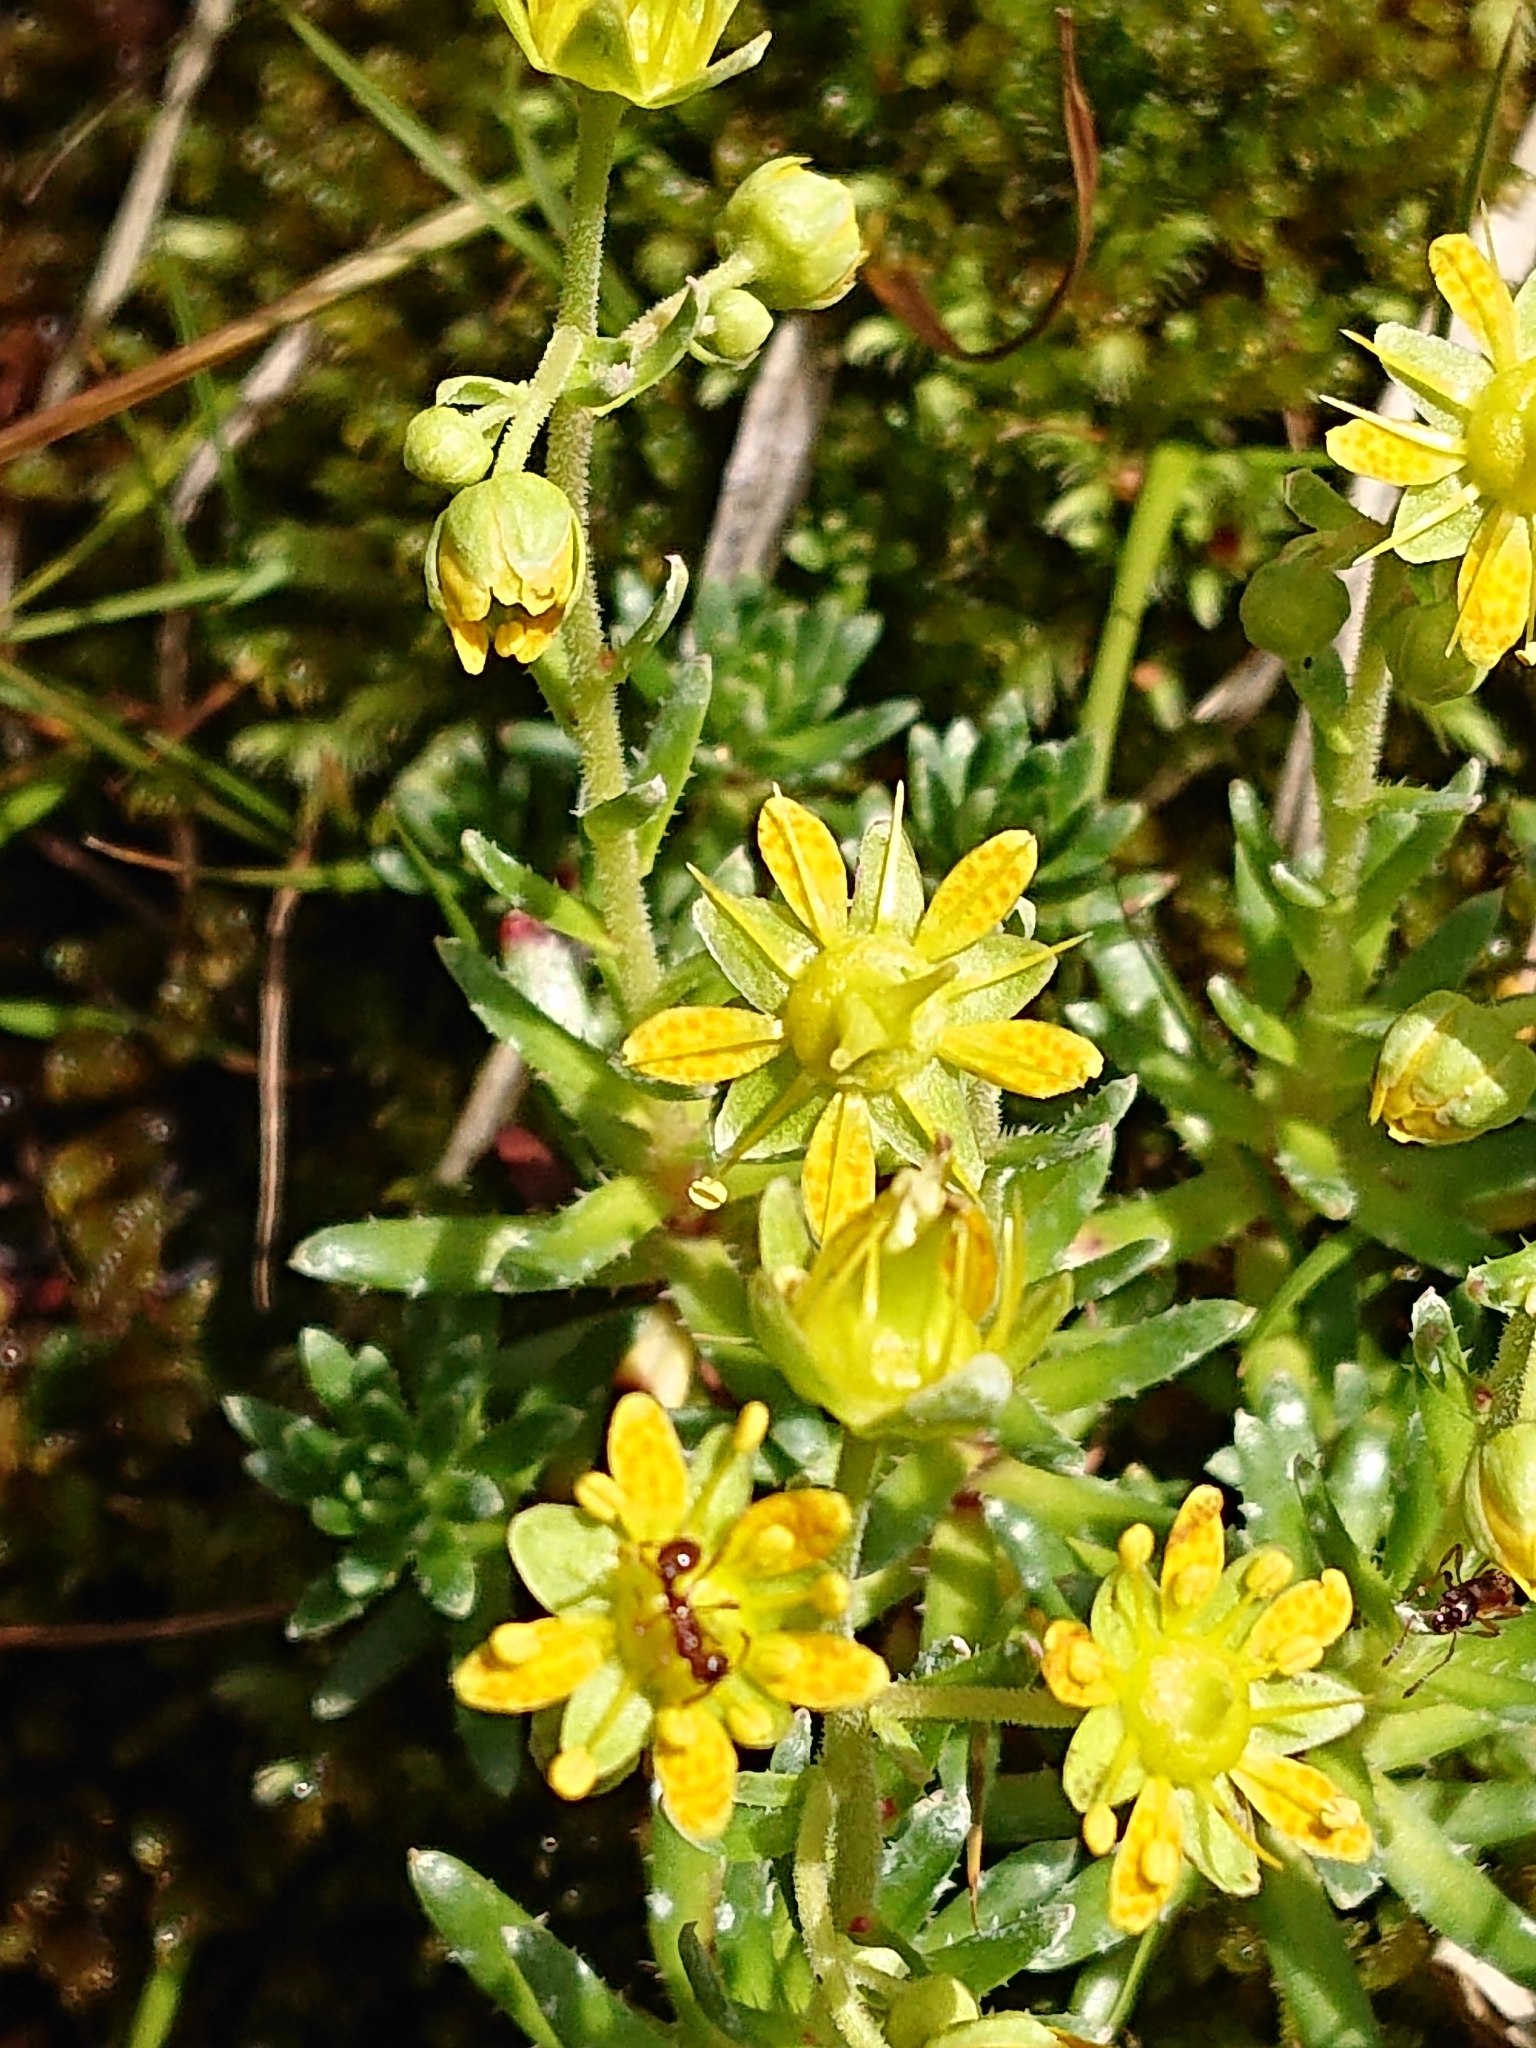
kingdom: Plantae
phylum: Tracheophyta
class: Magnoliopsida
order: Saxifragales
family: Saxifragaceae
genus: Saxifraga
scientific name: Saxifraga aizoides
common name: Yellow mountain saxifrage
